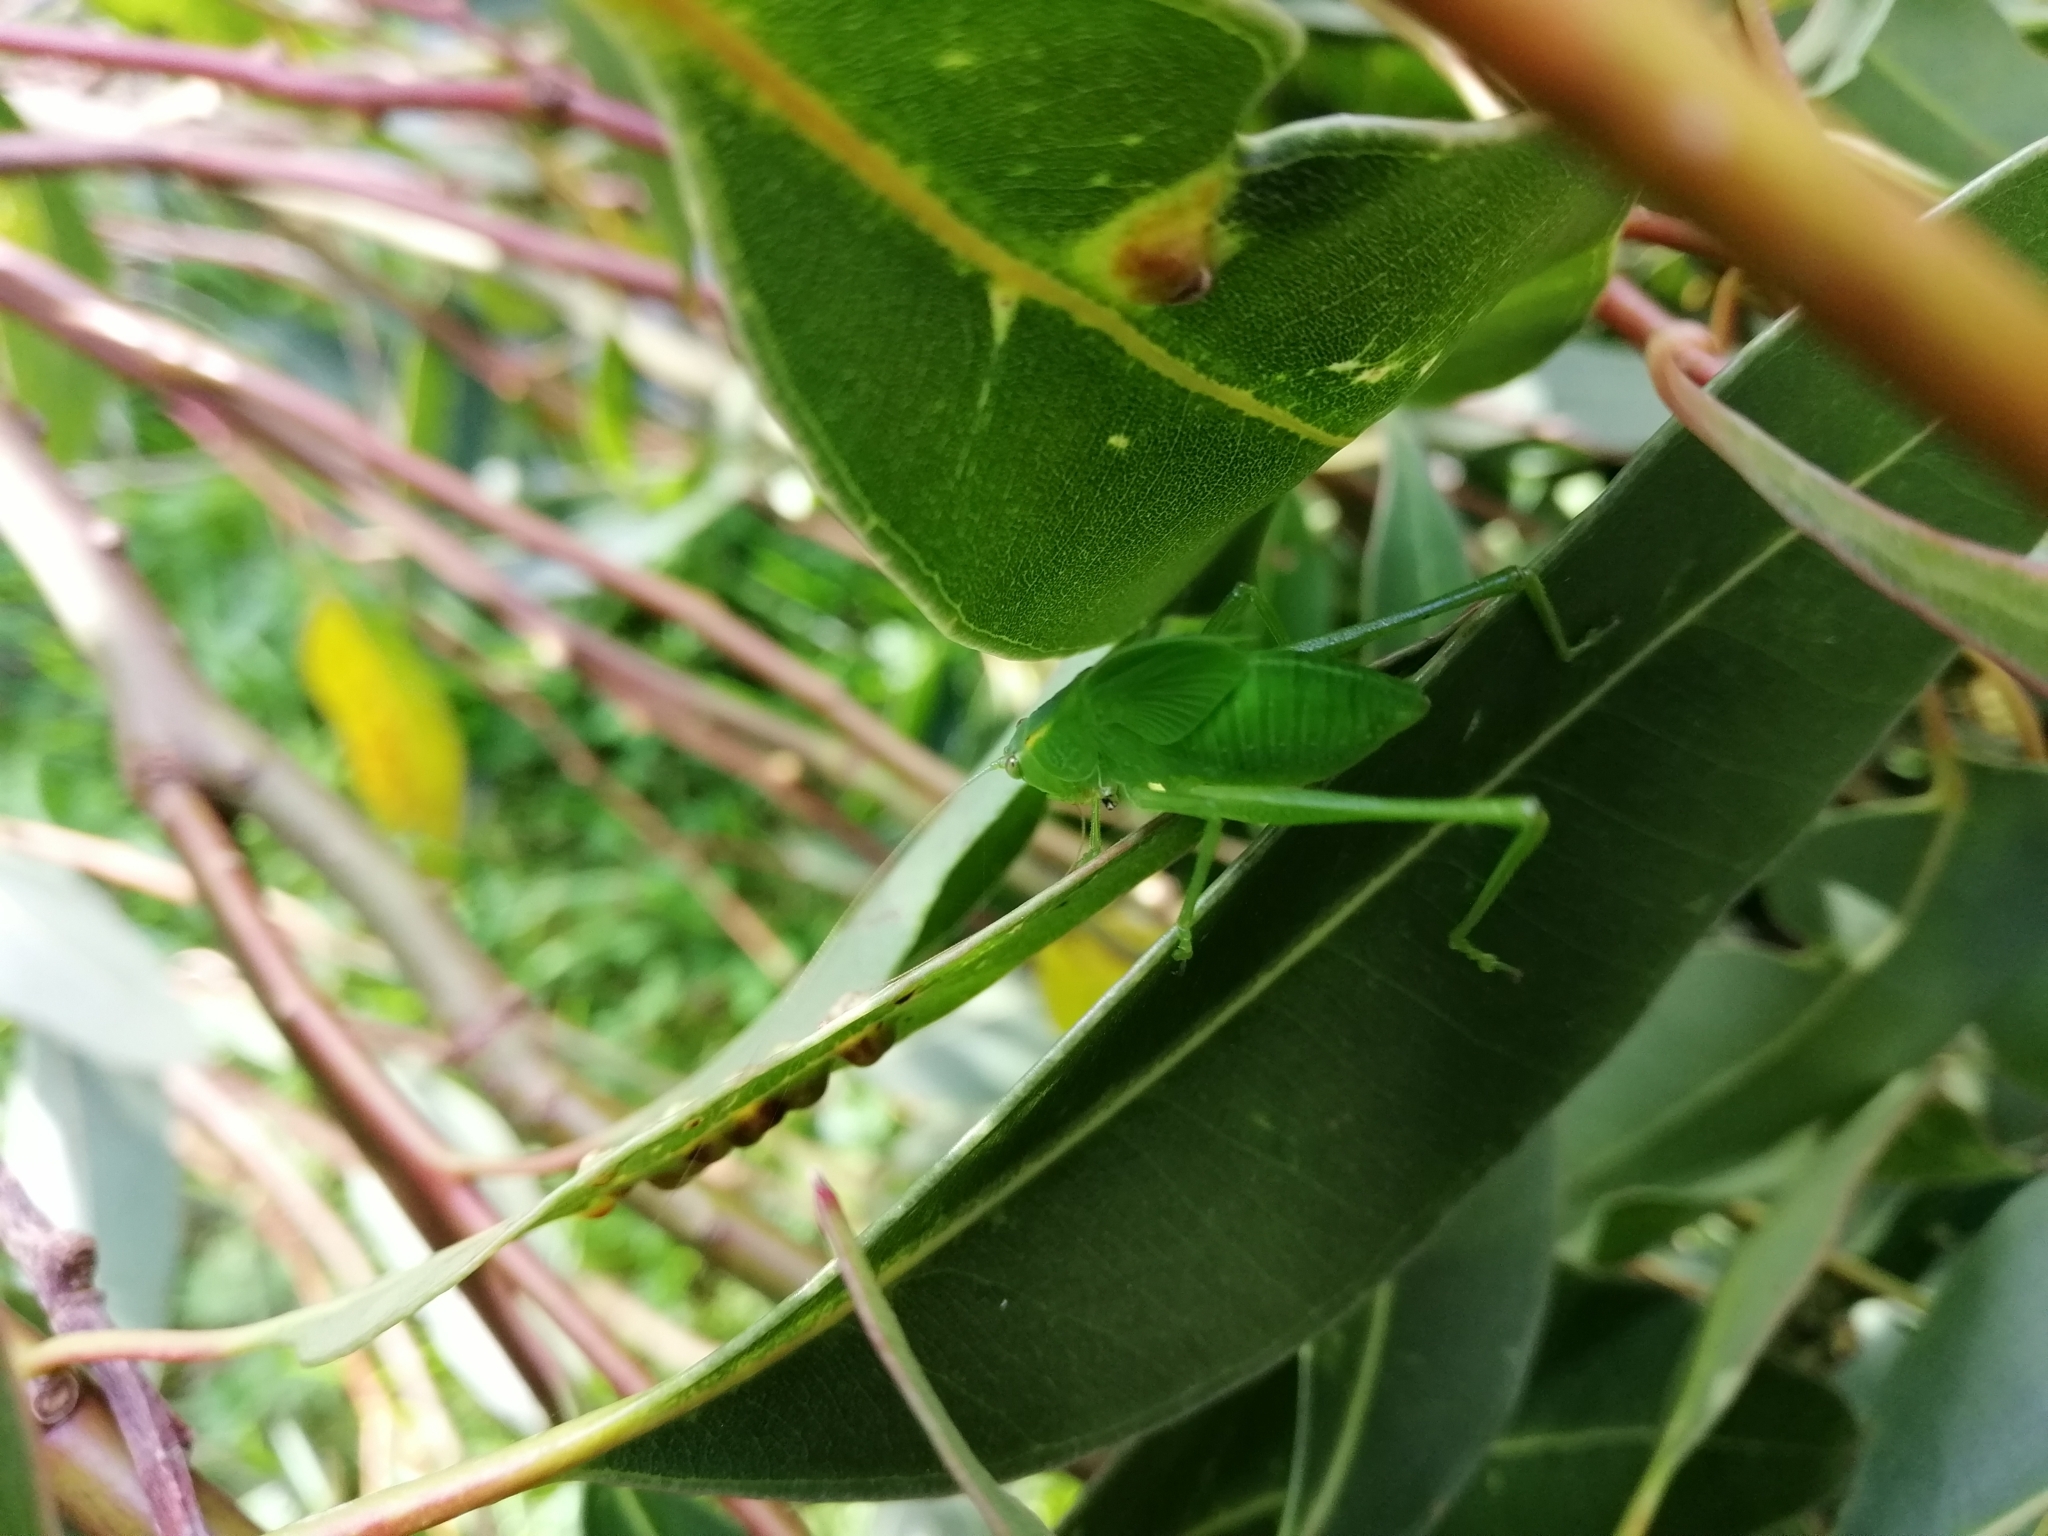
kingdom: Animalia
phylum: Arthropoda
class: Insecta
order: Orthoptera
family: Tettigoniidae
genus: Caedicia
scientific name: Caedicia simplex
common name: Common garden katydid
